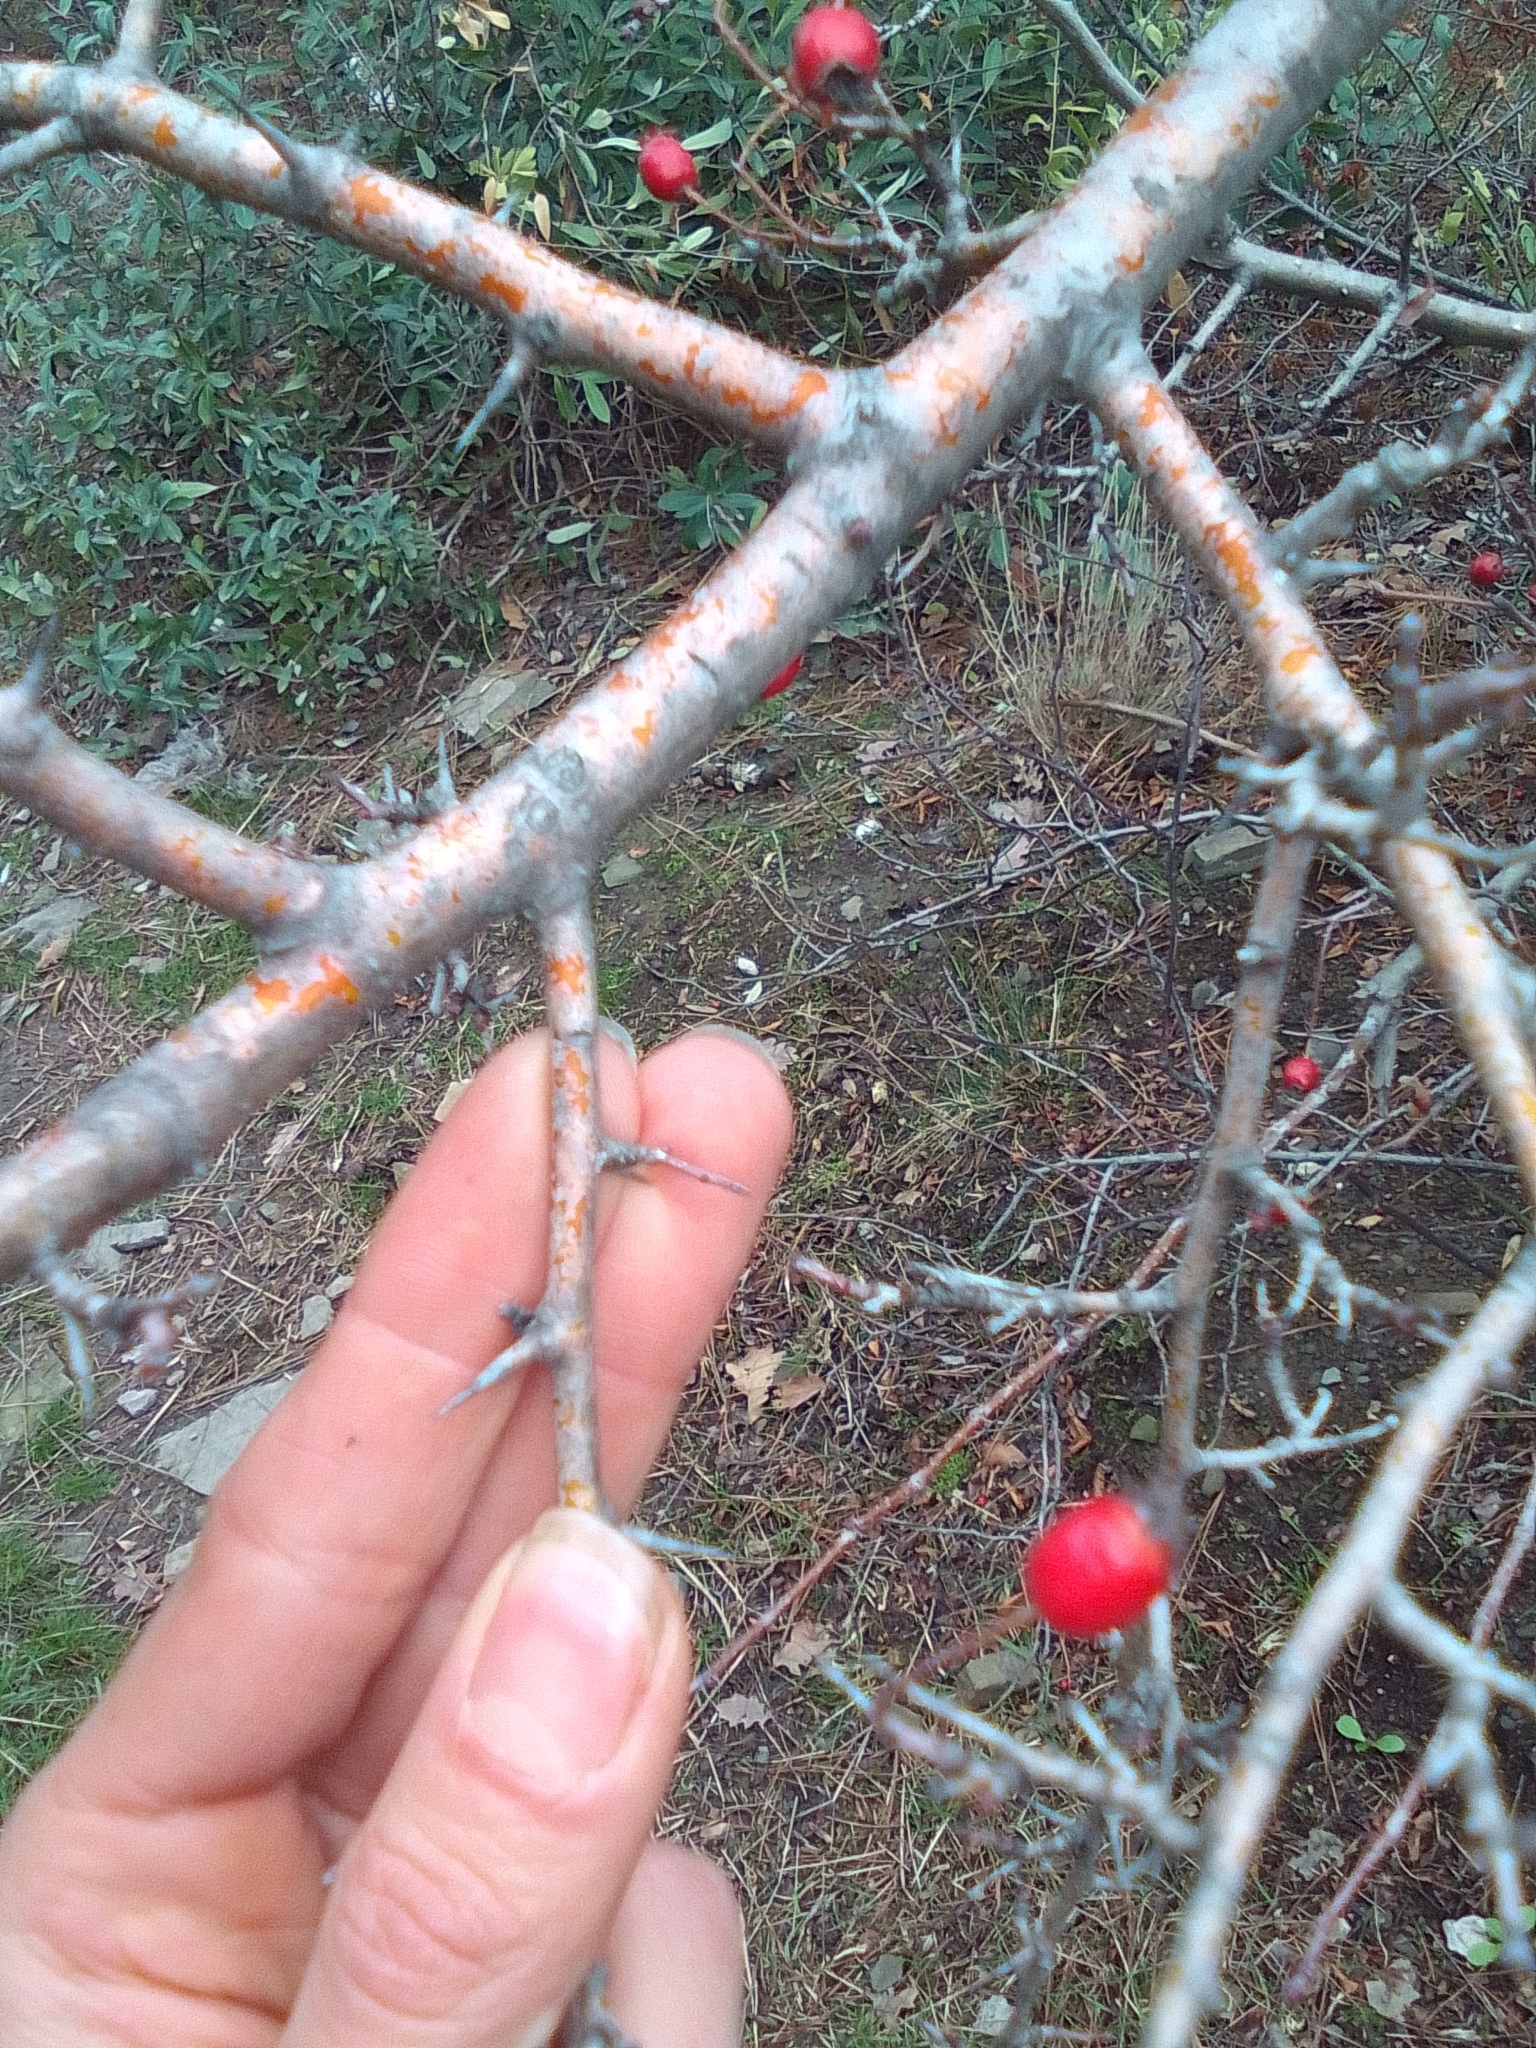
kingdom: Plantae
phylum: Tracheophyta
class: Magnoliopsida
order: Rosales
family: Rosaceae
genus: Crataegus
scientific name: Crataegus monogyna
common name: Hawthorn
